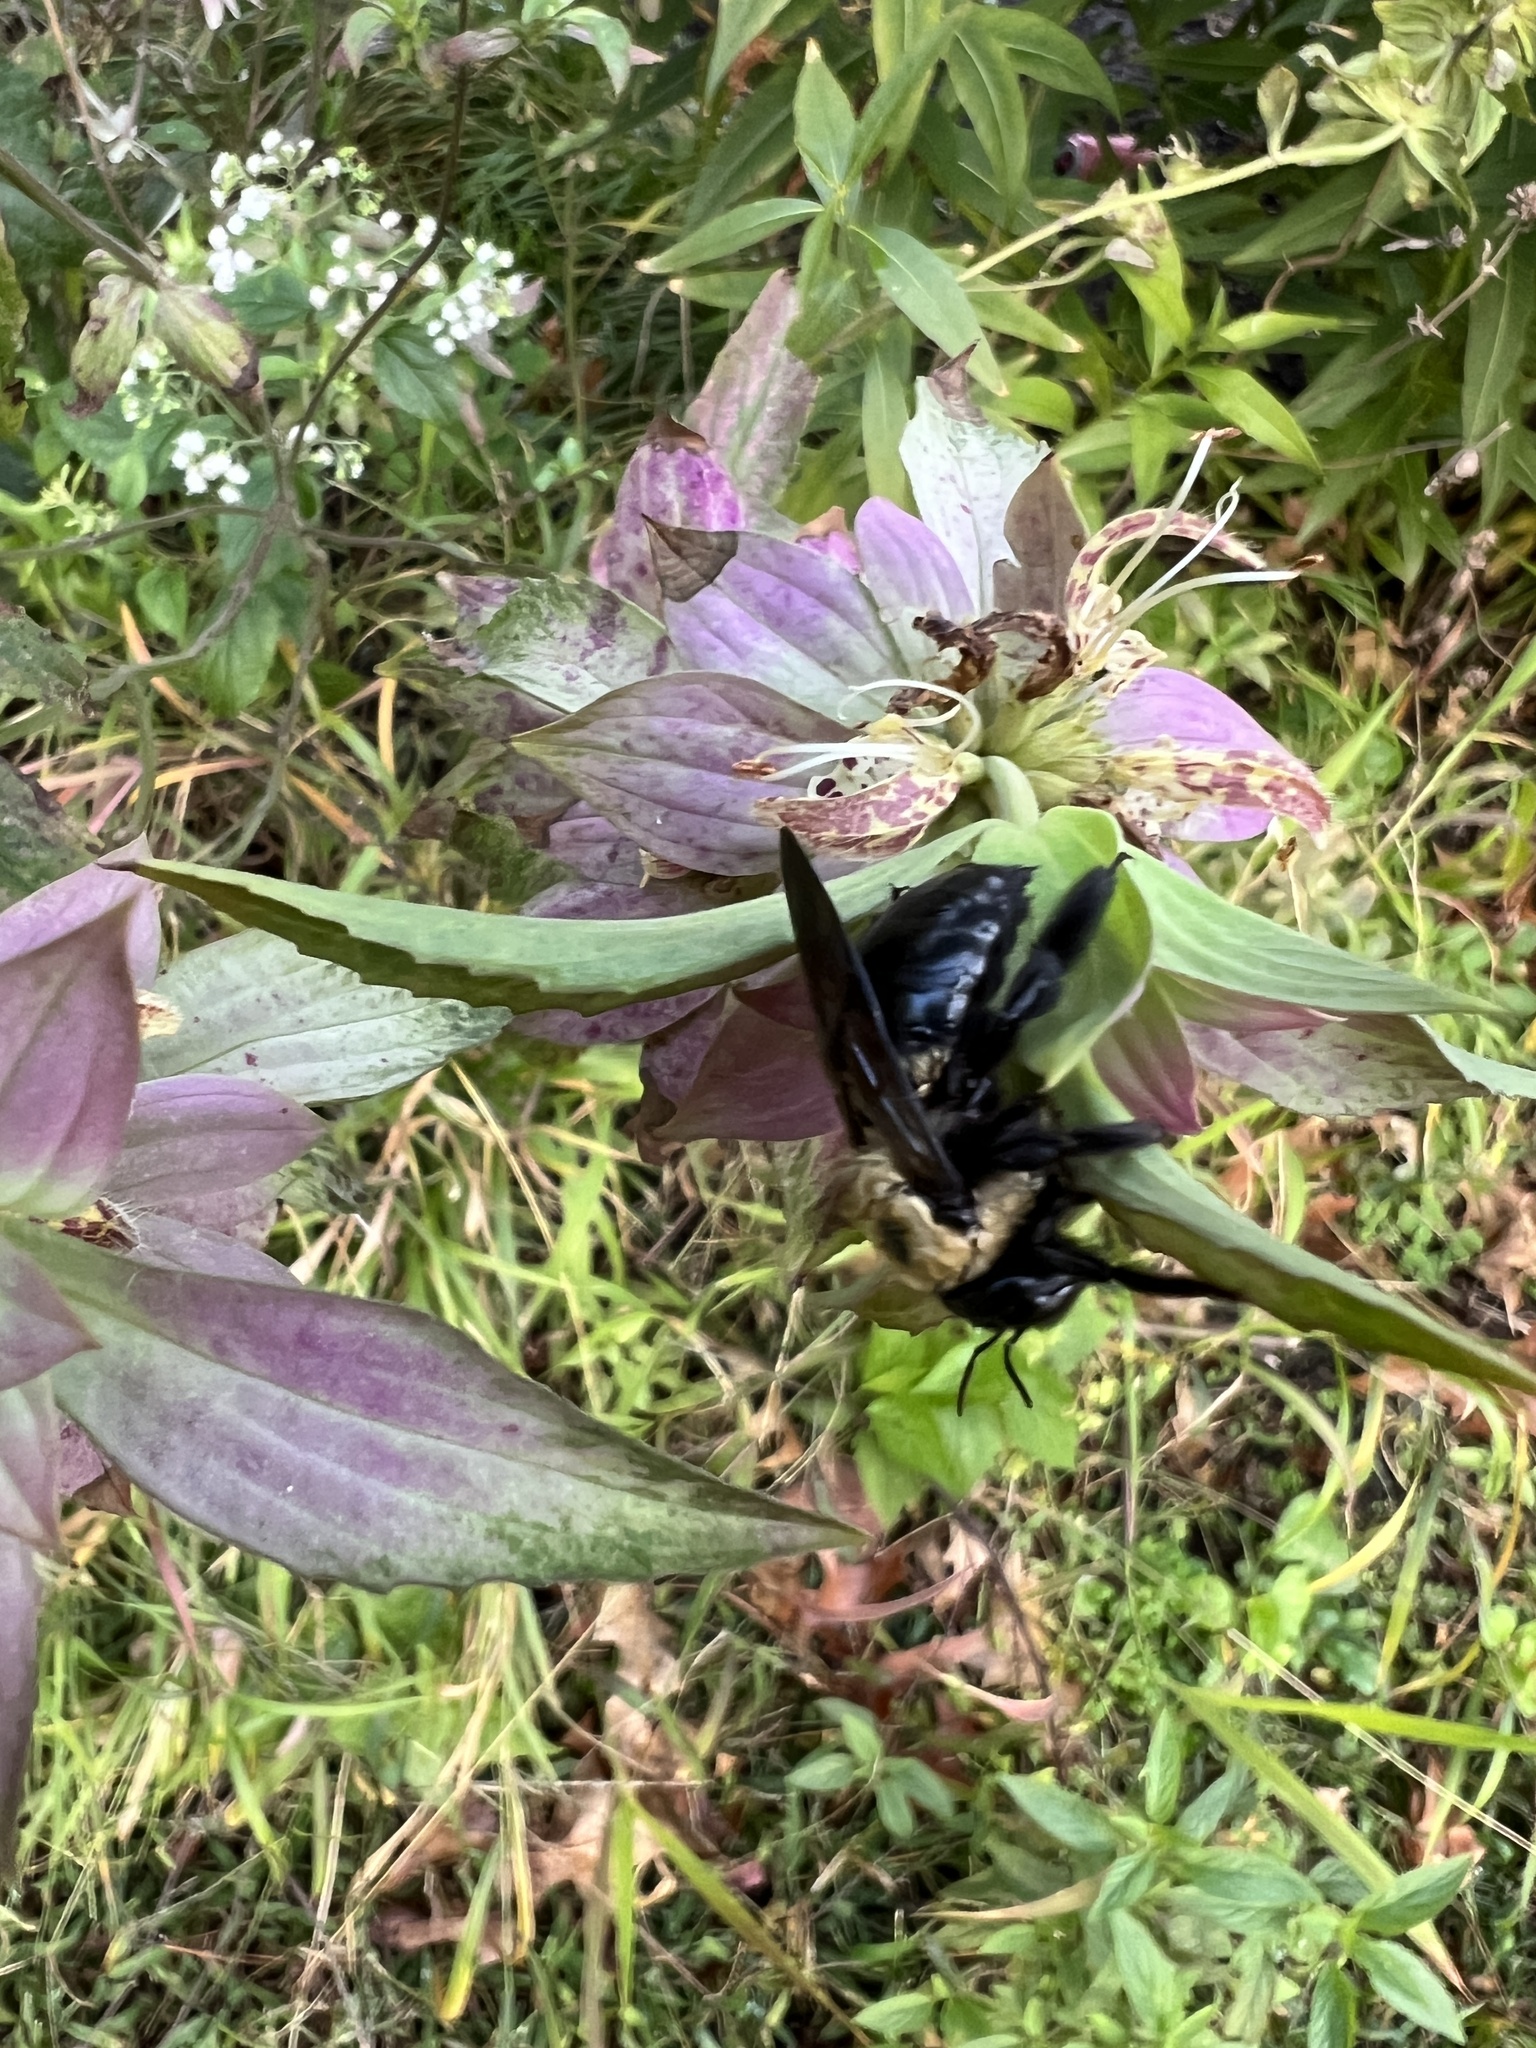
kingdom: Animalia
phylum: Arthropoda
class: Insecta
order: Hymenoptera
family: Apidae
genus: Xylocopa
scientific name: Xylocopa virginica
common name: Carpenter bee
